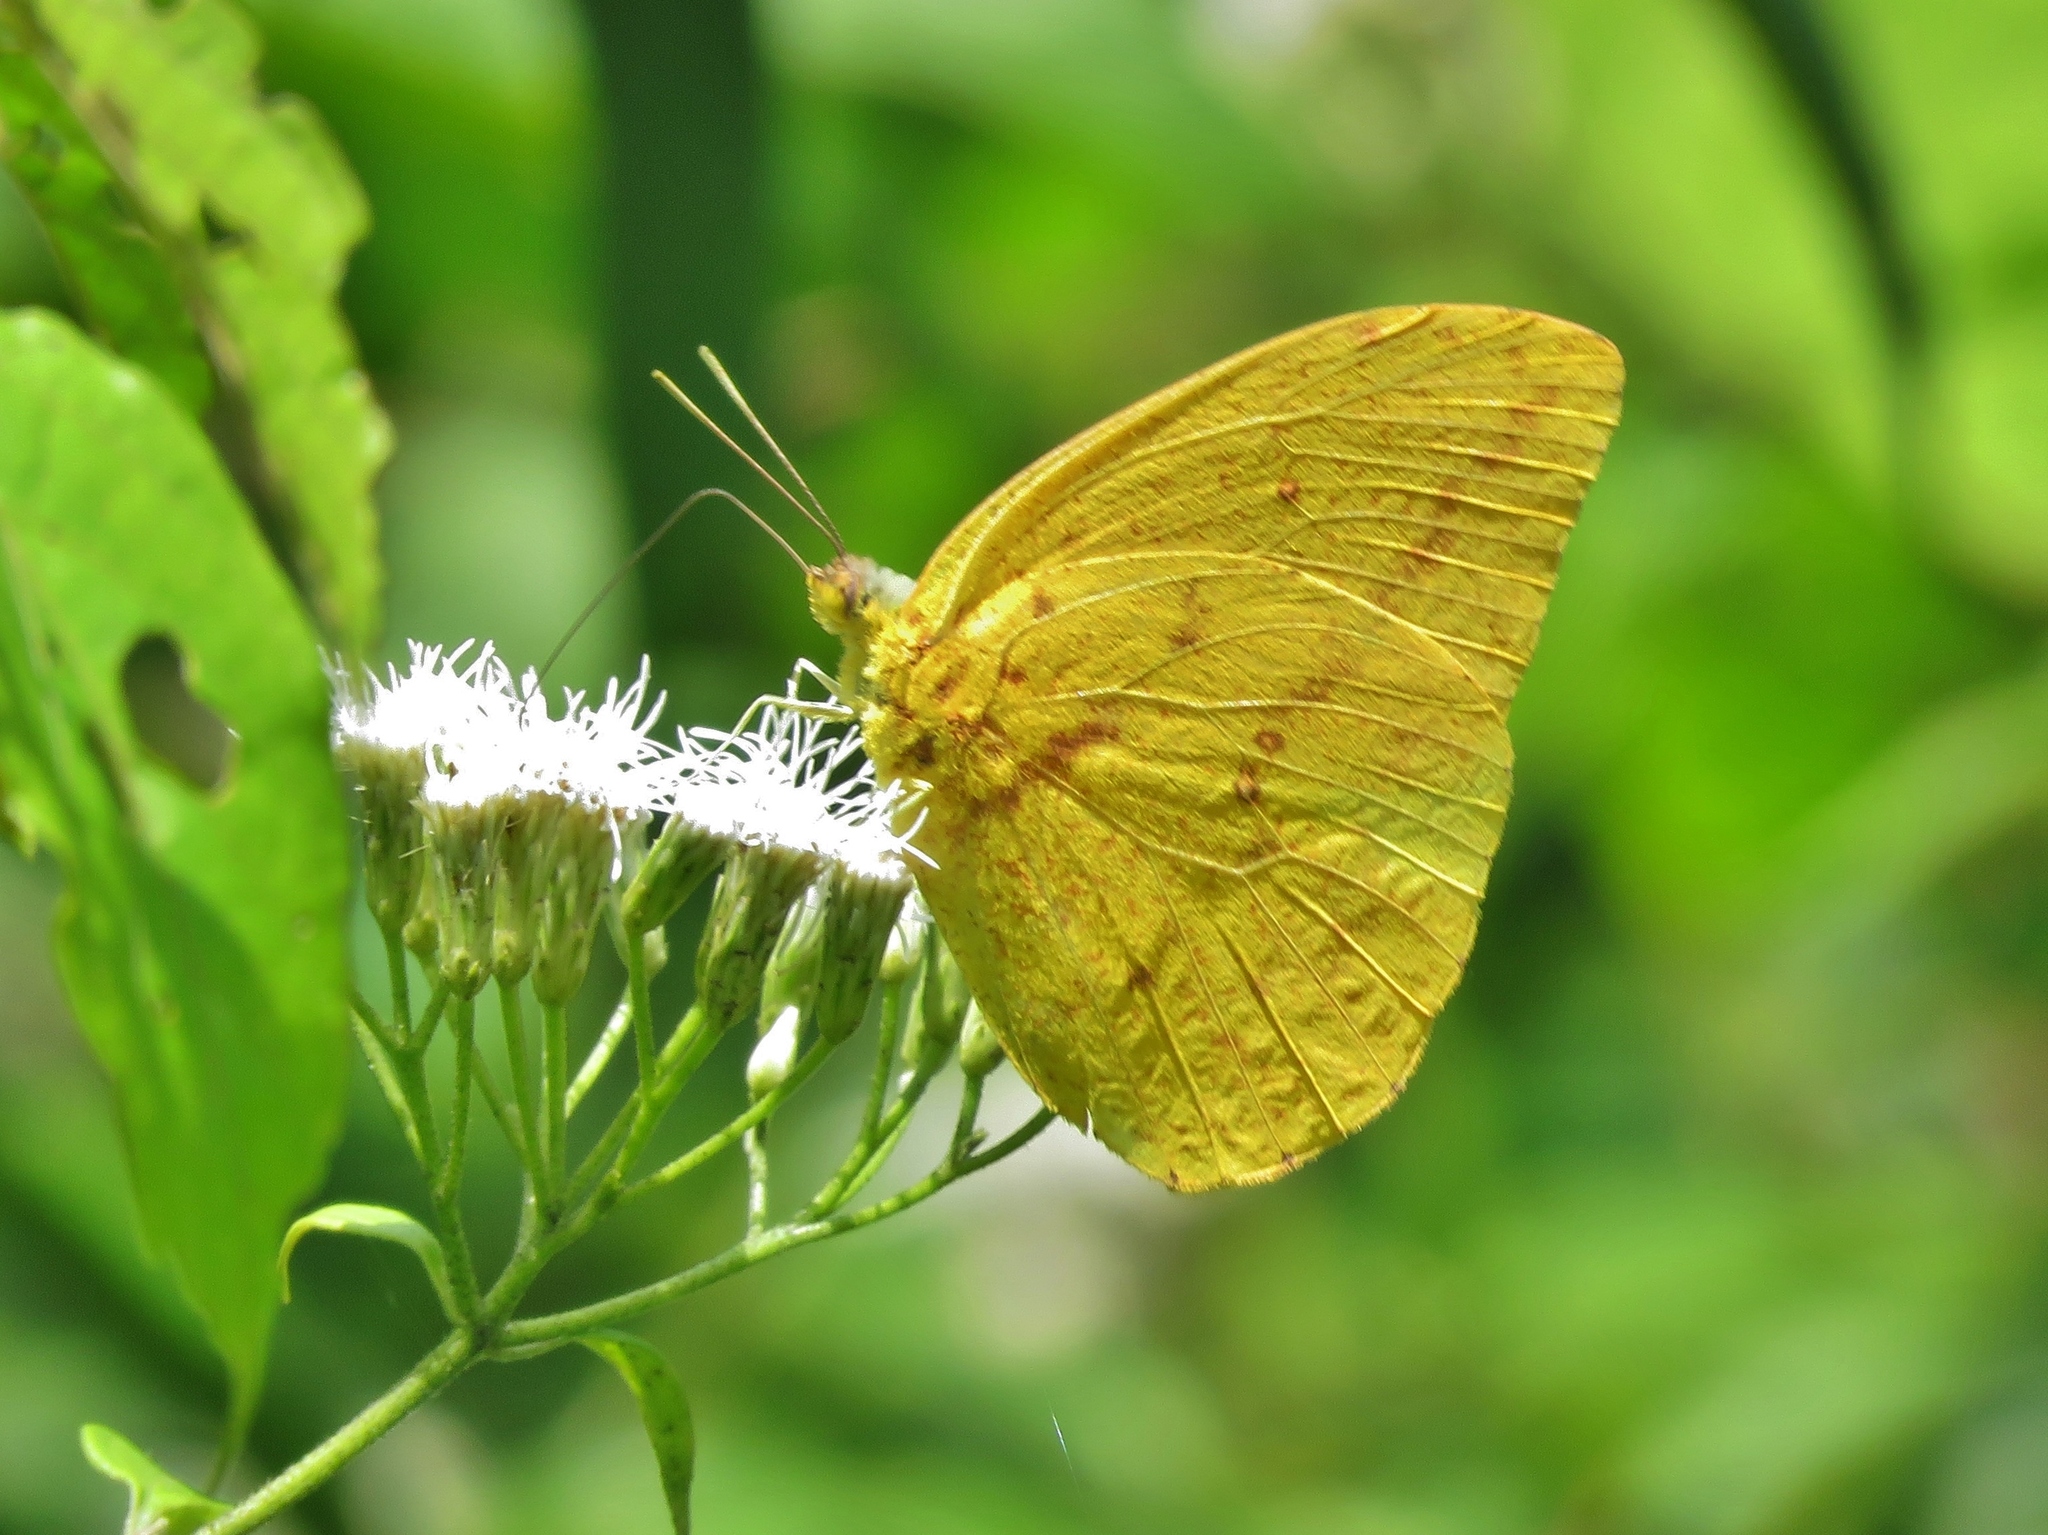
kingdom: Animalia
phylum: Arthropoda
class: Insecta
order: Lepidoptera
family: Pieridae
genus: Phoebis
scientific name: Phoebis agarithe
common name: Large orange sulphur
